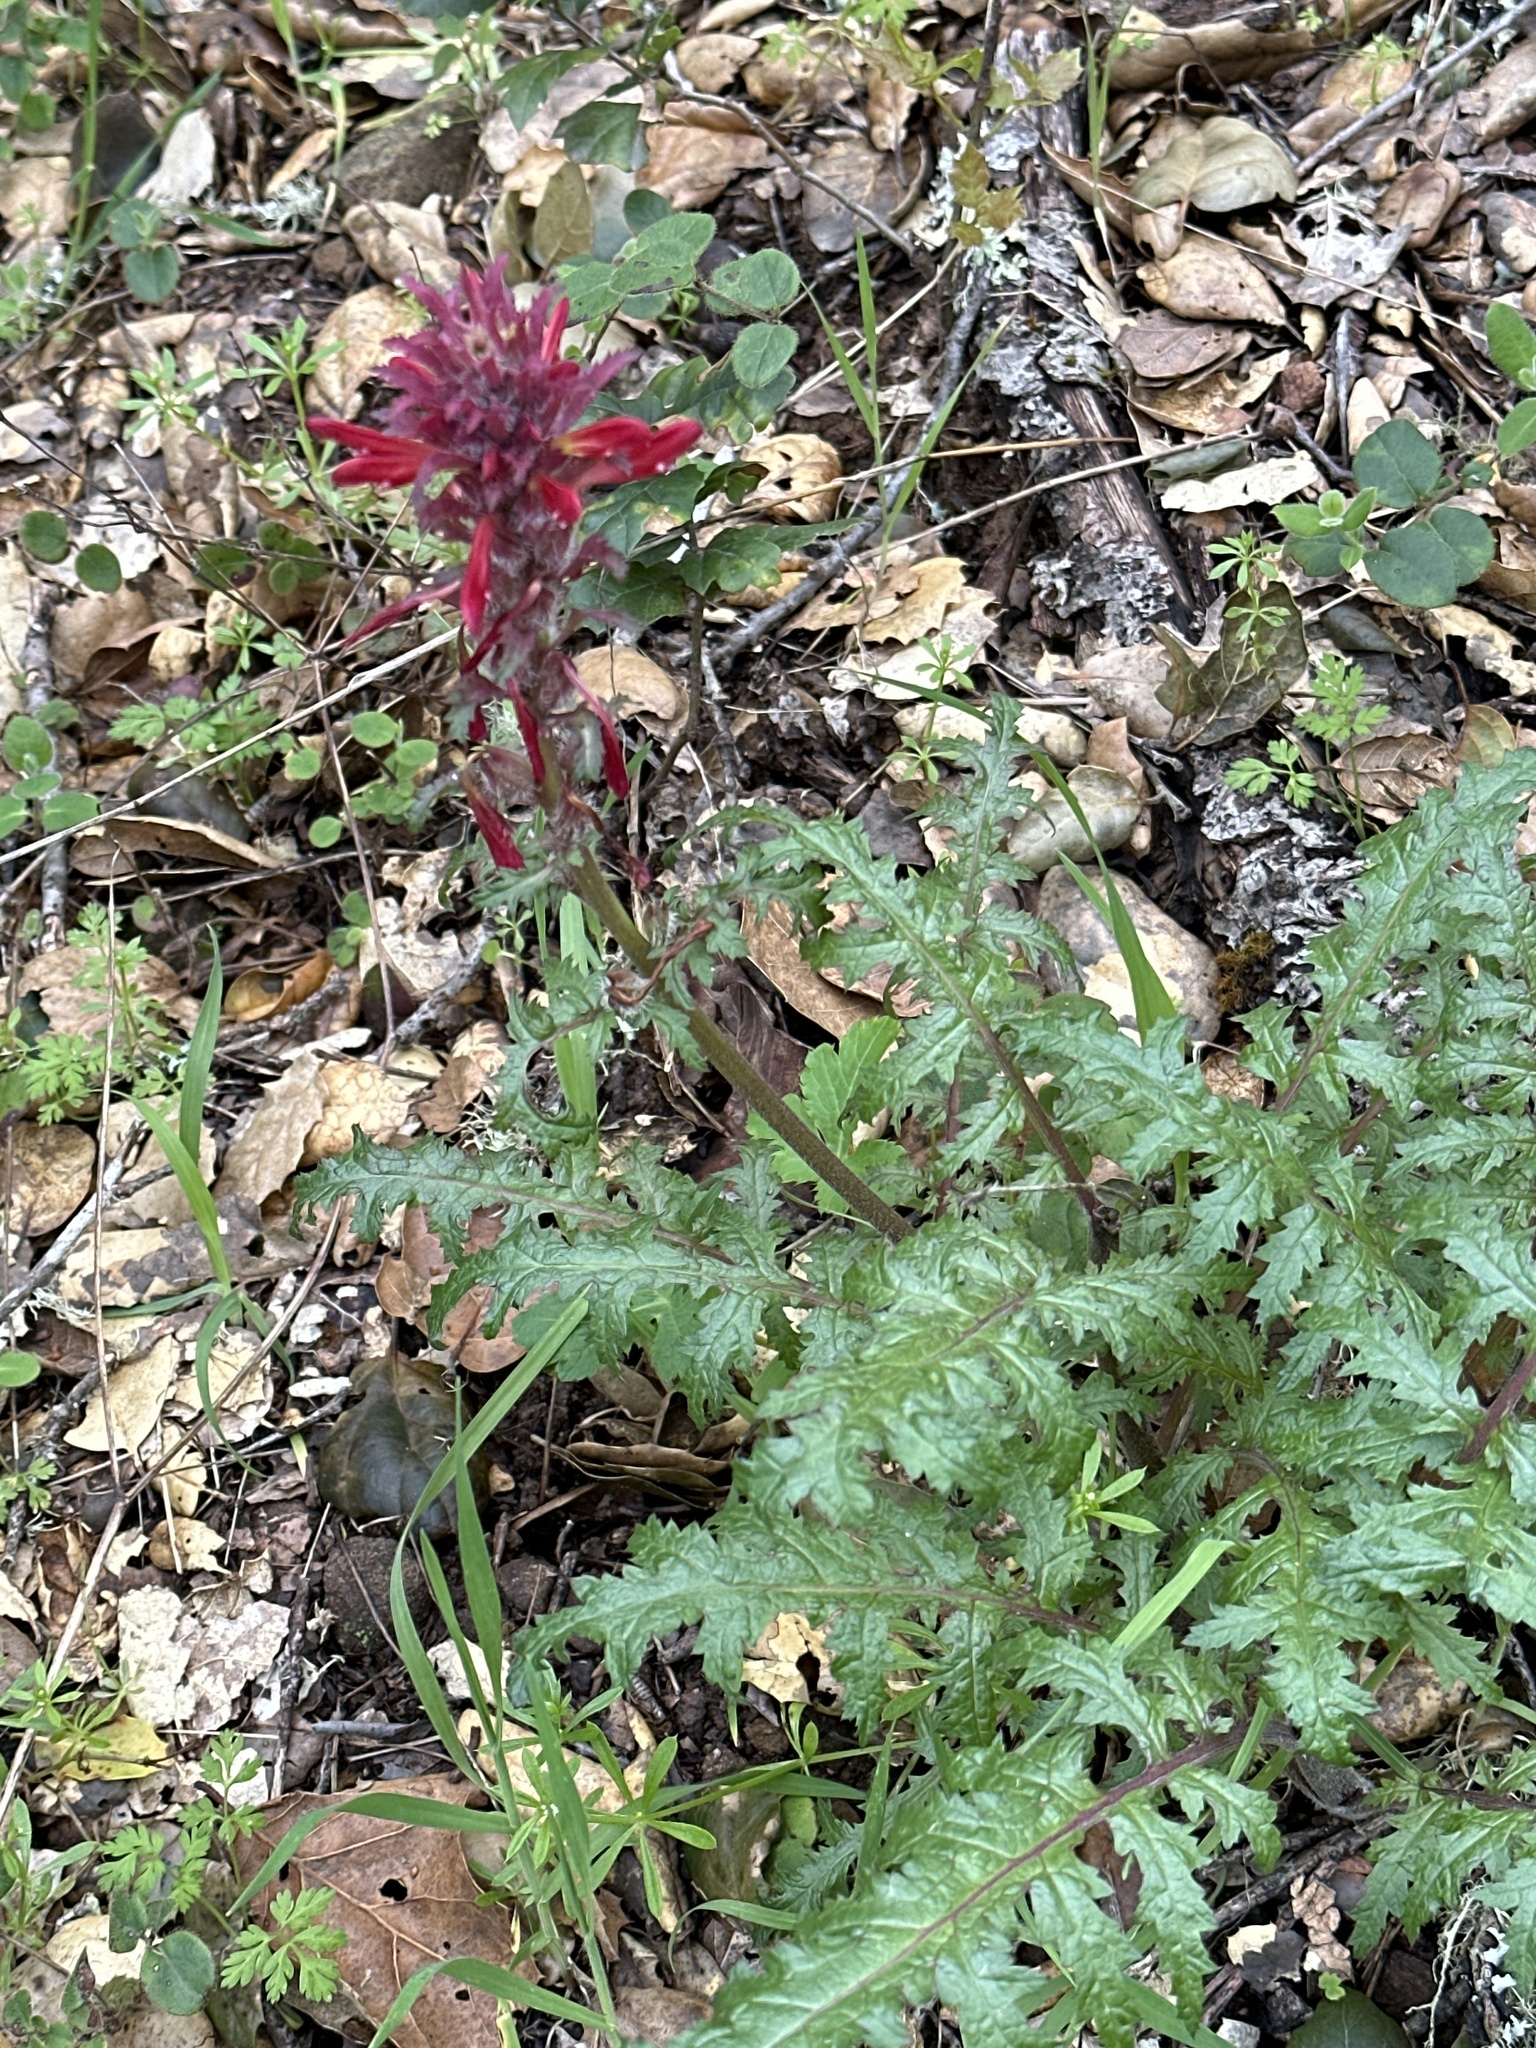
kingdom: Plantae
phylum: Tracheophyta
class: Magnoliopsida
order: Lamiales
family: Orobanchaceae
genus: Pedicularis
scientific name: Pedicularis densiflora
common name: Indian warrior
